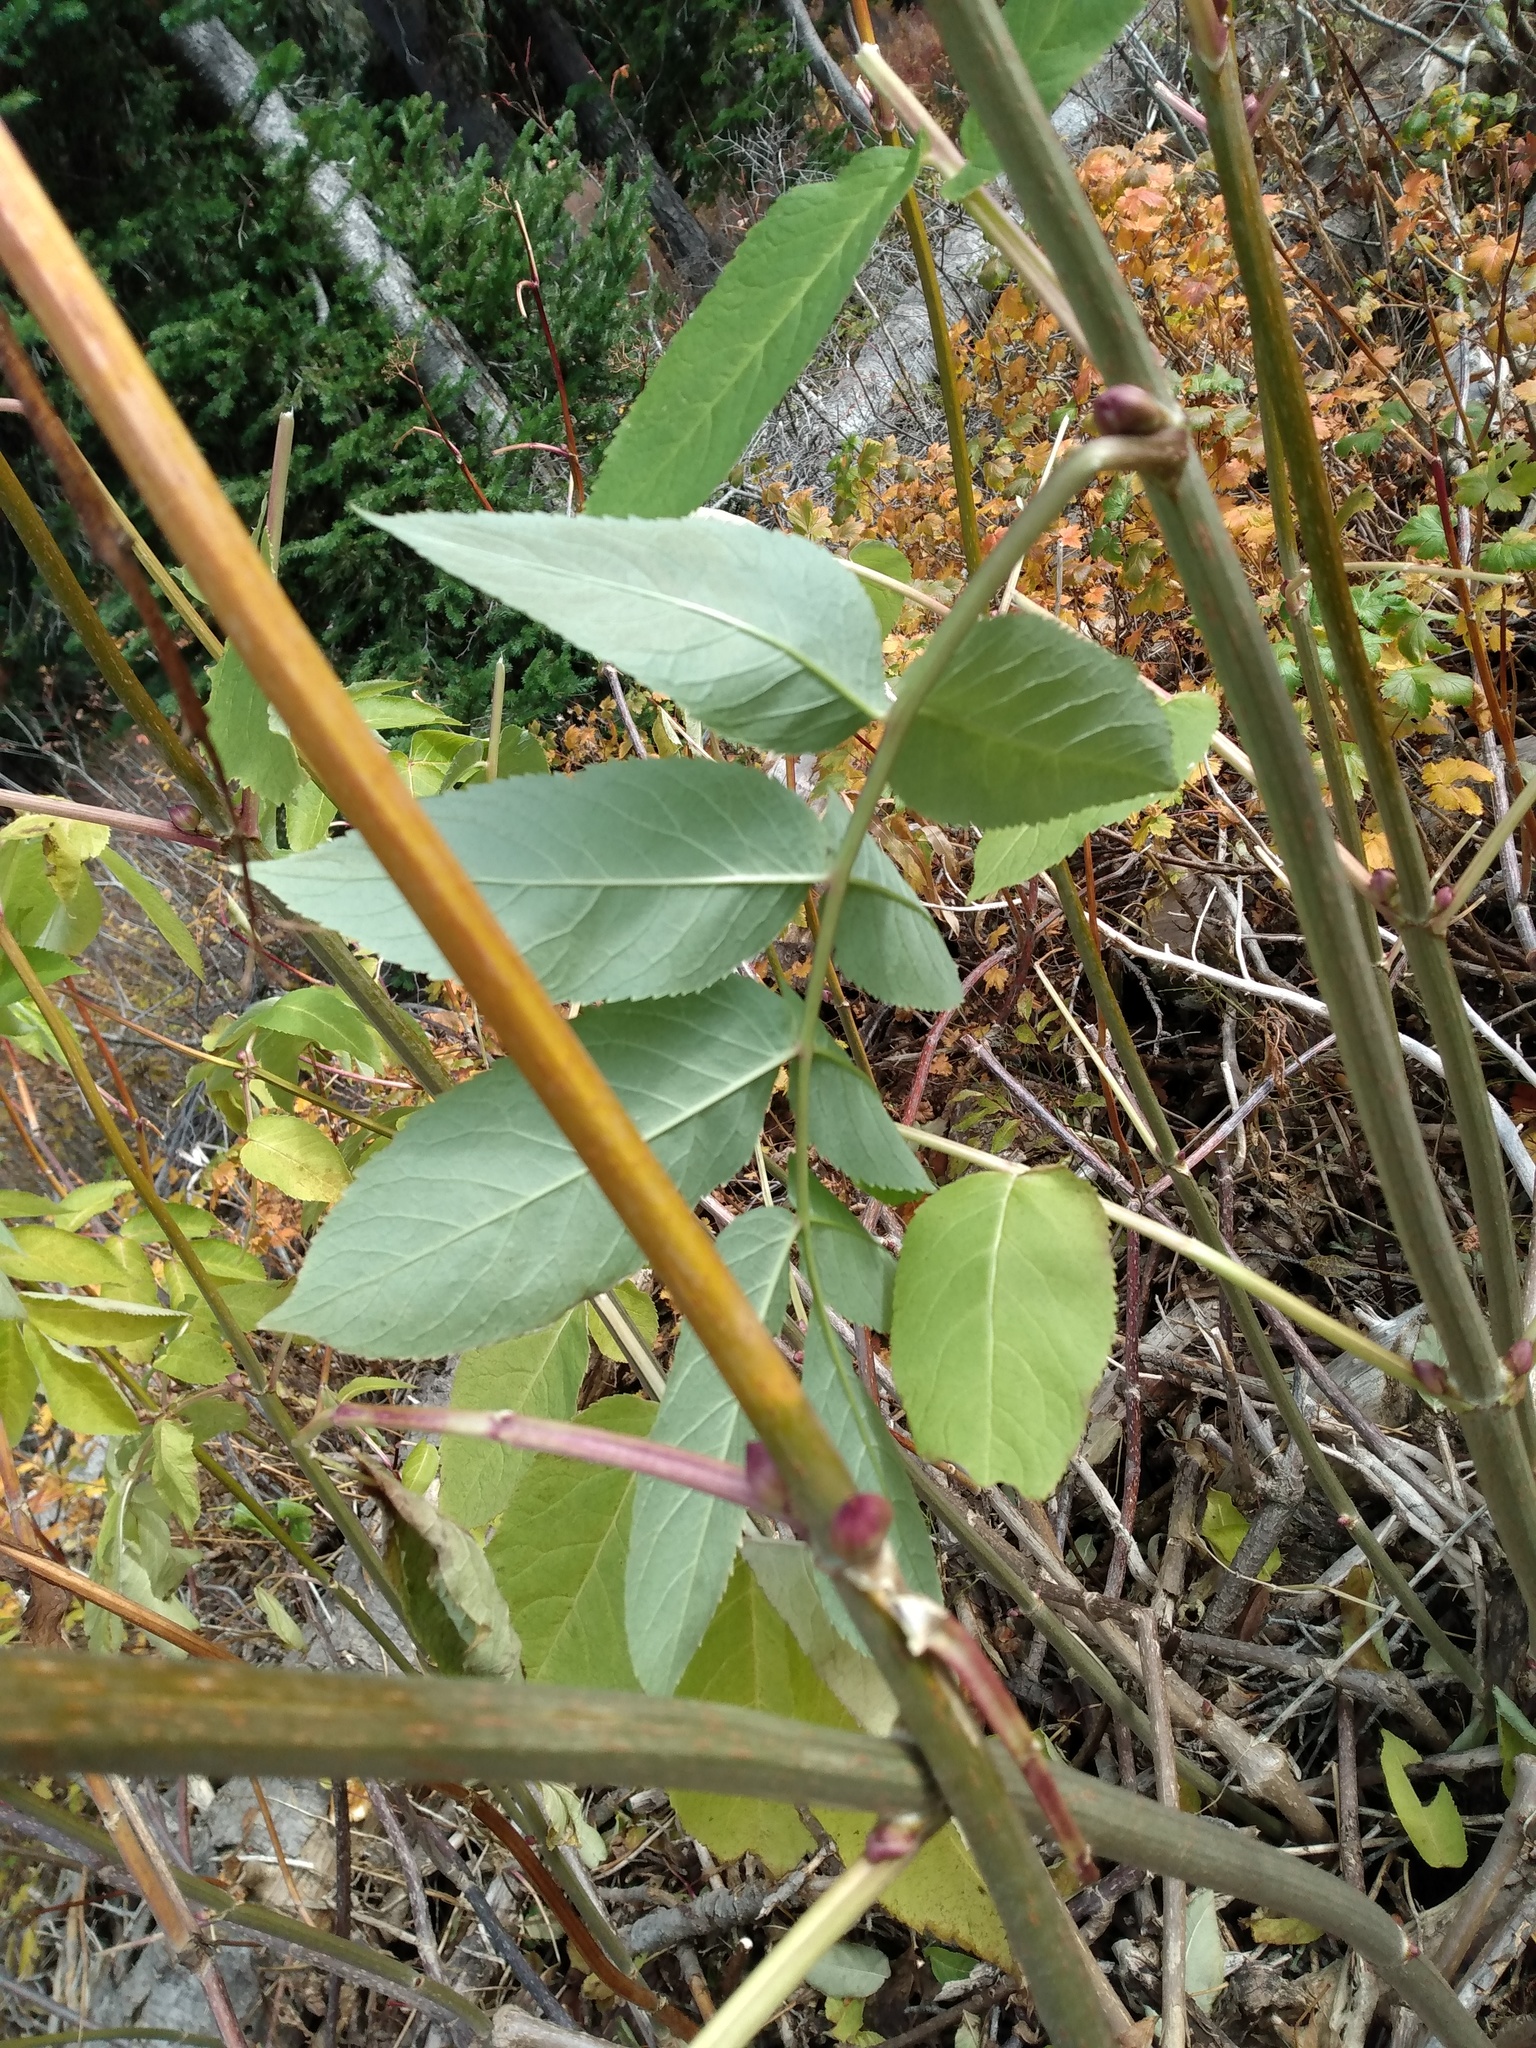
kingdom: Plantae
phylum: Tracheophyta
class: Magnoliopsida
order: Dipsacales
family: Viburnaceae
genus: Sambucus
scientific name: Sambucus cerulea
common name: Blue elder
